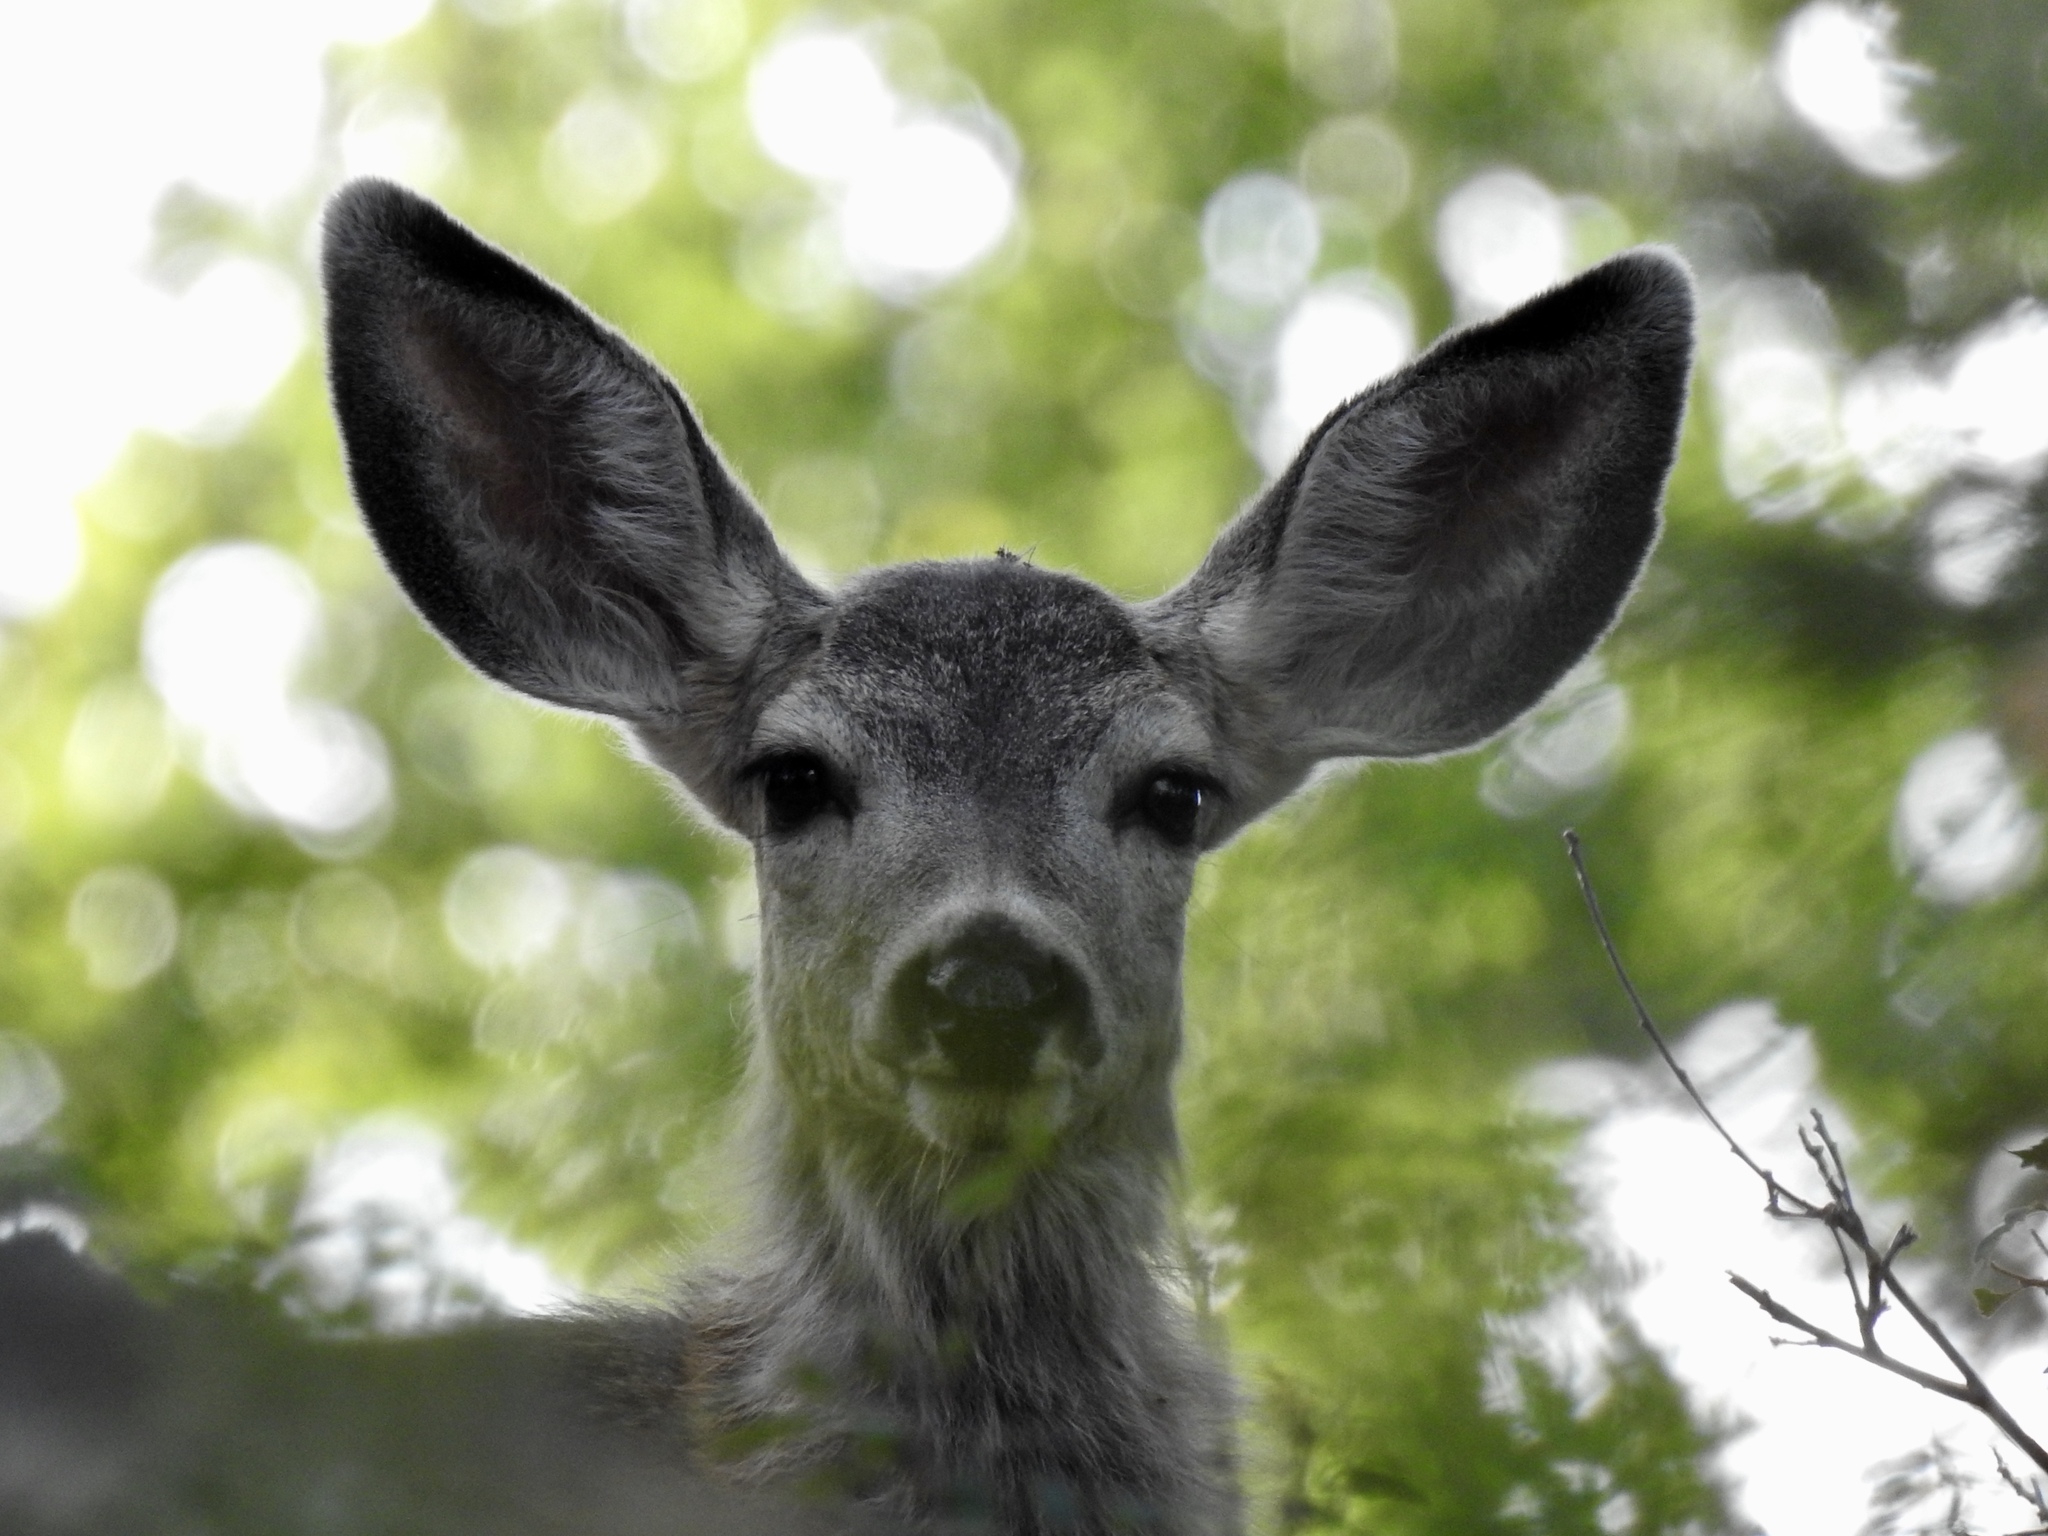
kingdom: Animalia
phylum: Chordata
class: Mammalia
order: Artiodactyla
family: Cervidae
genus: Odocoileus
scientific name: Odocoileus hemionus
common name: Mule deer
